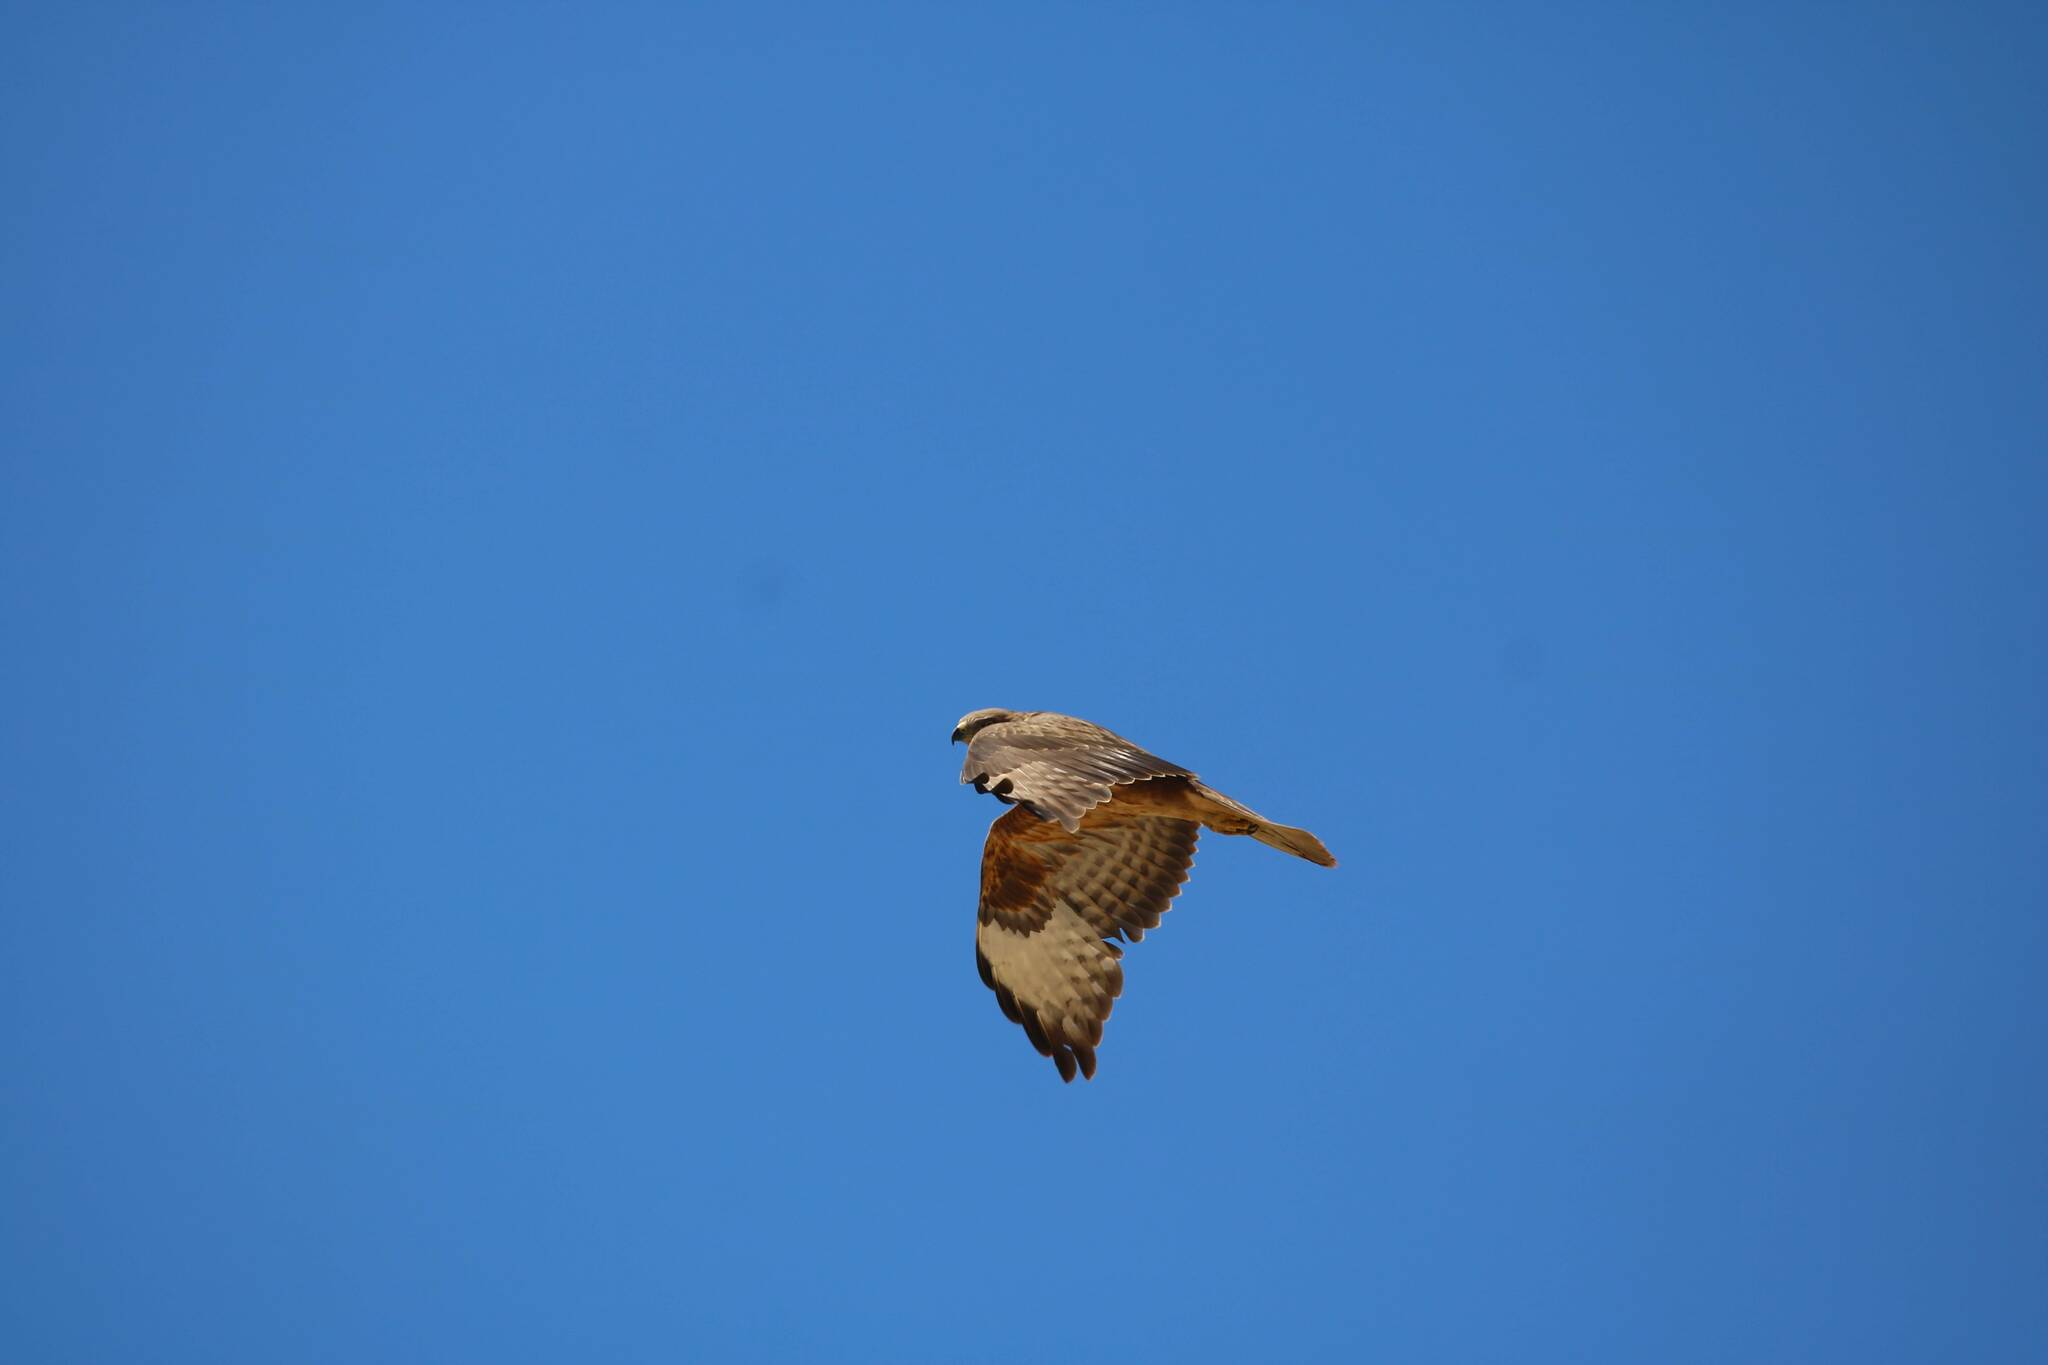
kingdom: Animalia
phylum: Chordata
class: Aves
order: Accipitriformes
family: Accipitridae
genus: Buteo
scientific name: Buteo rufinus
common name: Long-legged buzzard
